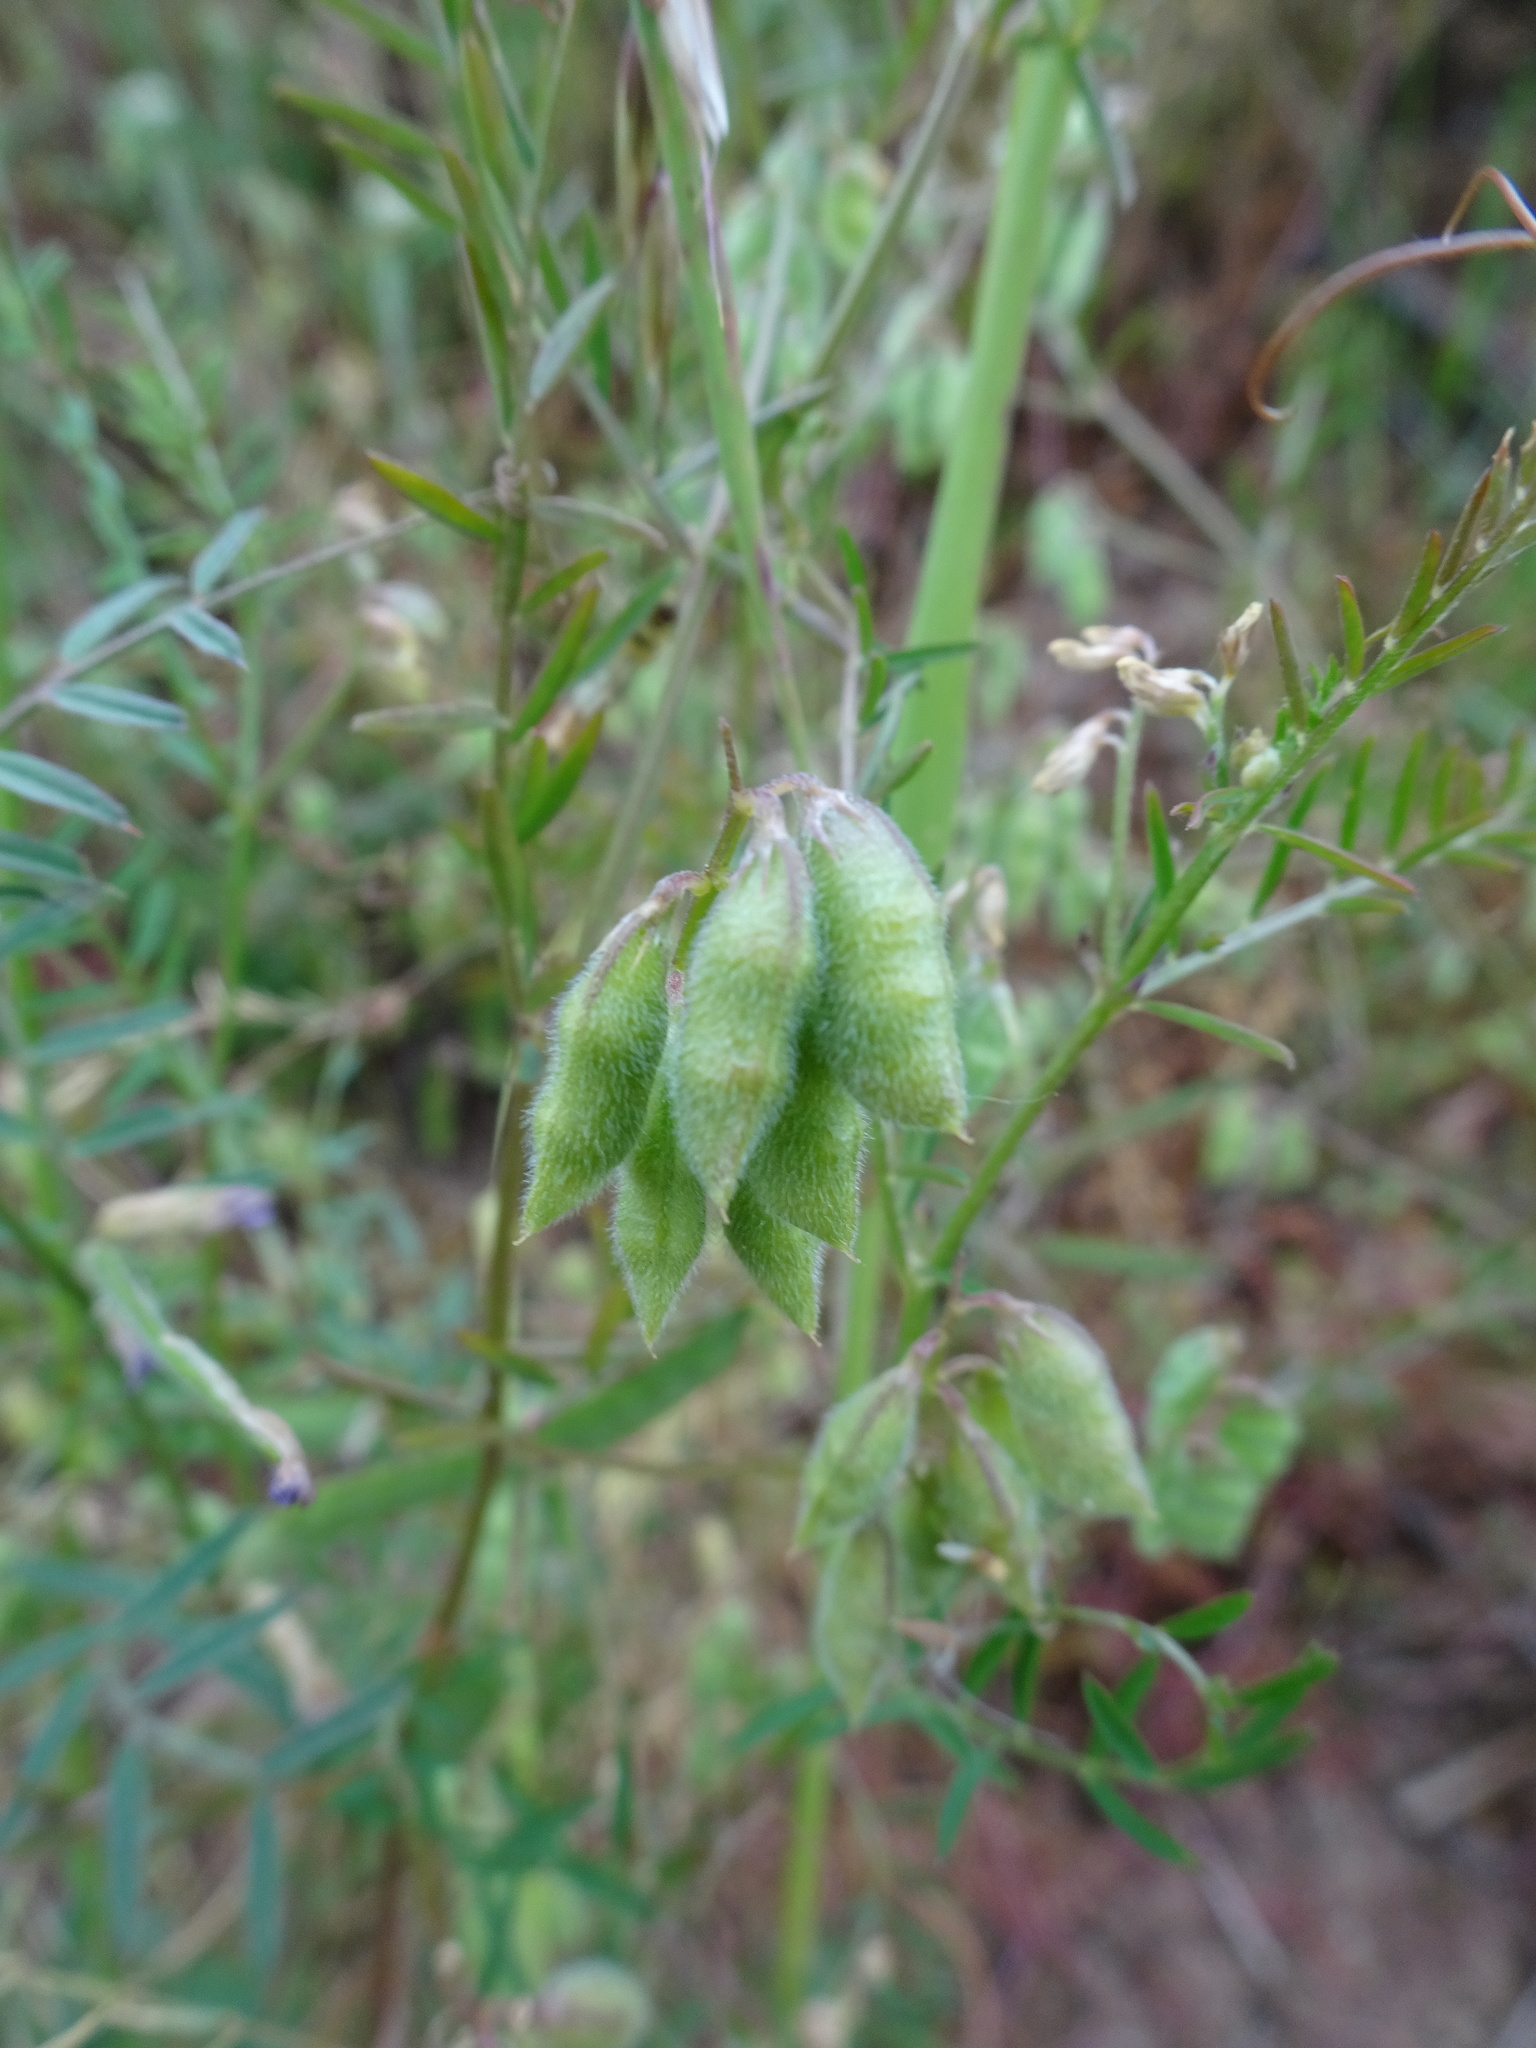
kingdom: Plantae
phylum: Tracheophyta
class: Magnoliopsida
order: Fabales
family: Fabaceae
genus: Vicia
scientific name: Vicia hirsuta
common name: Tiny vetch
